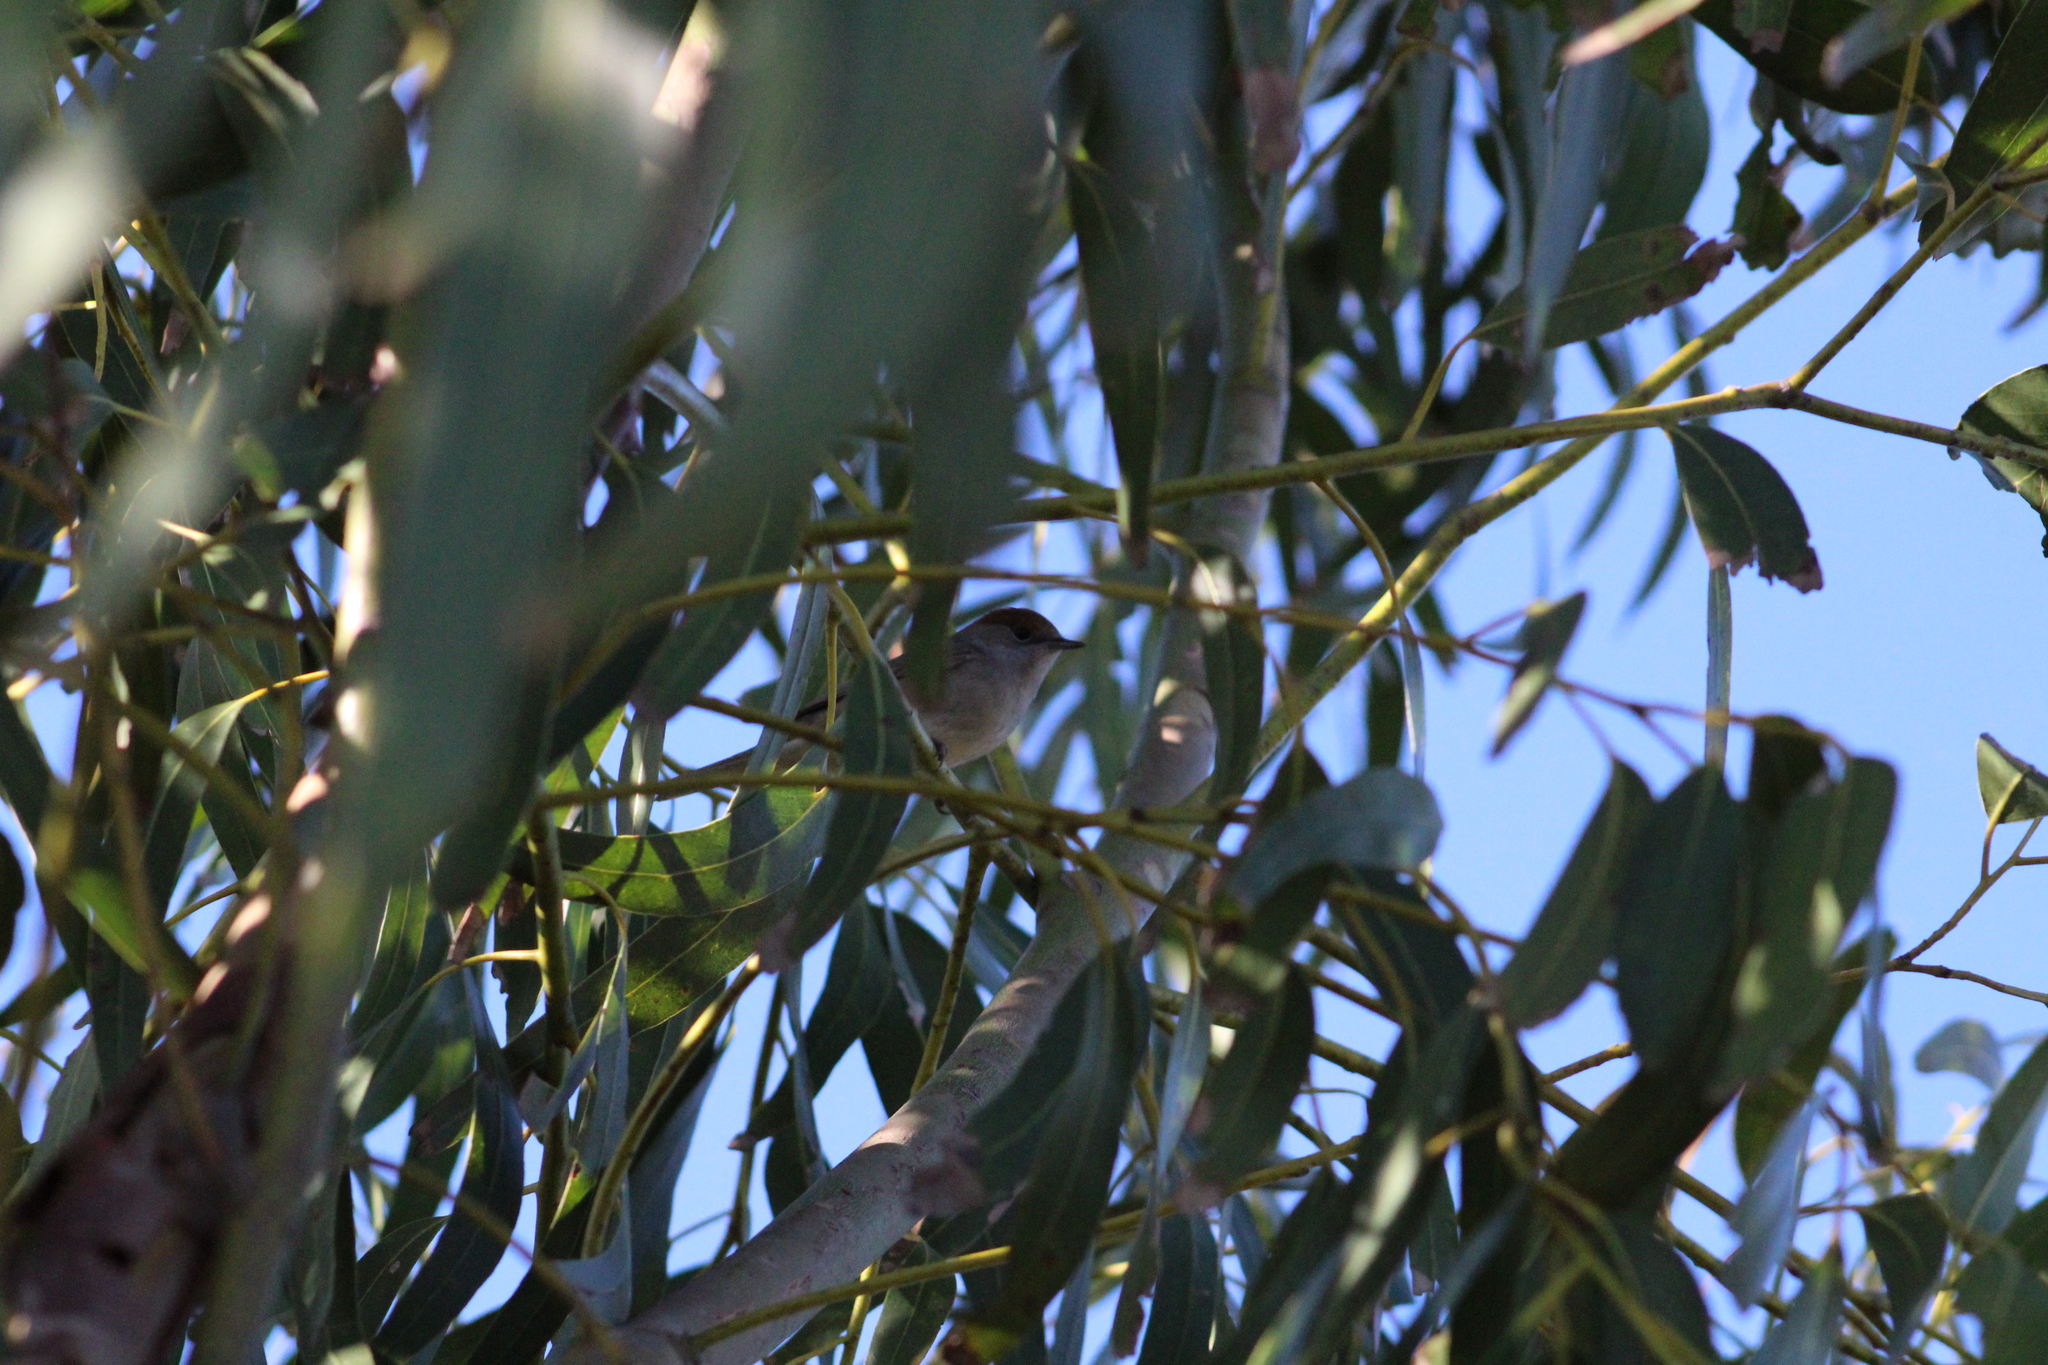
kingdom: Animalia
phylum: Chordata
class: Aves
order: Passeriformes
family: Sylviidae
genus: Sylvia
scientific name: Sylvia atricapilla
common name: Eurasian blackcap
